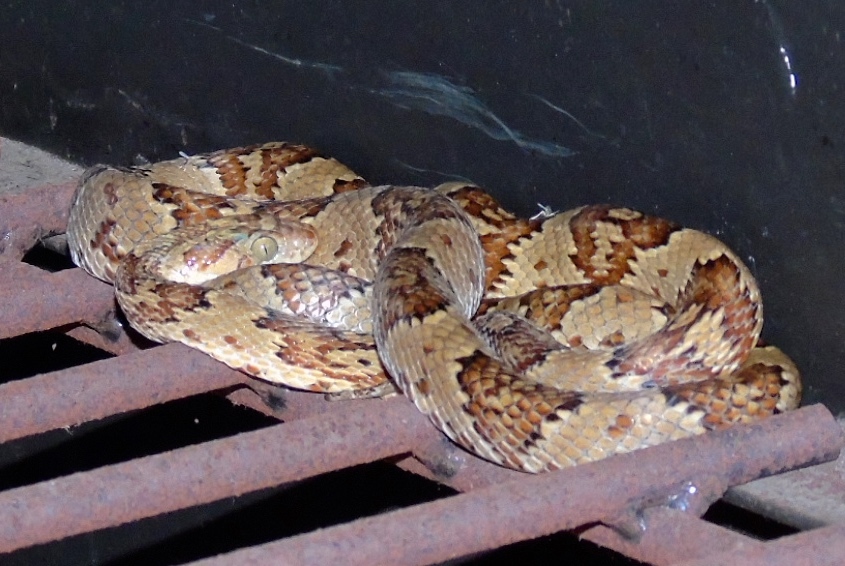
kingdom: Animalia
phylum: Chordata
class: Squamata
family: Colubridae
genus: Trimorphodon
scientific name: Trimorphodon paucimaculatus
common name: Sinaloan lyresnake
